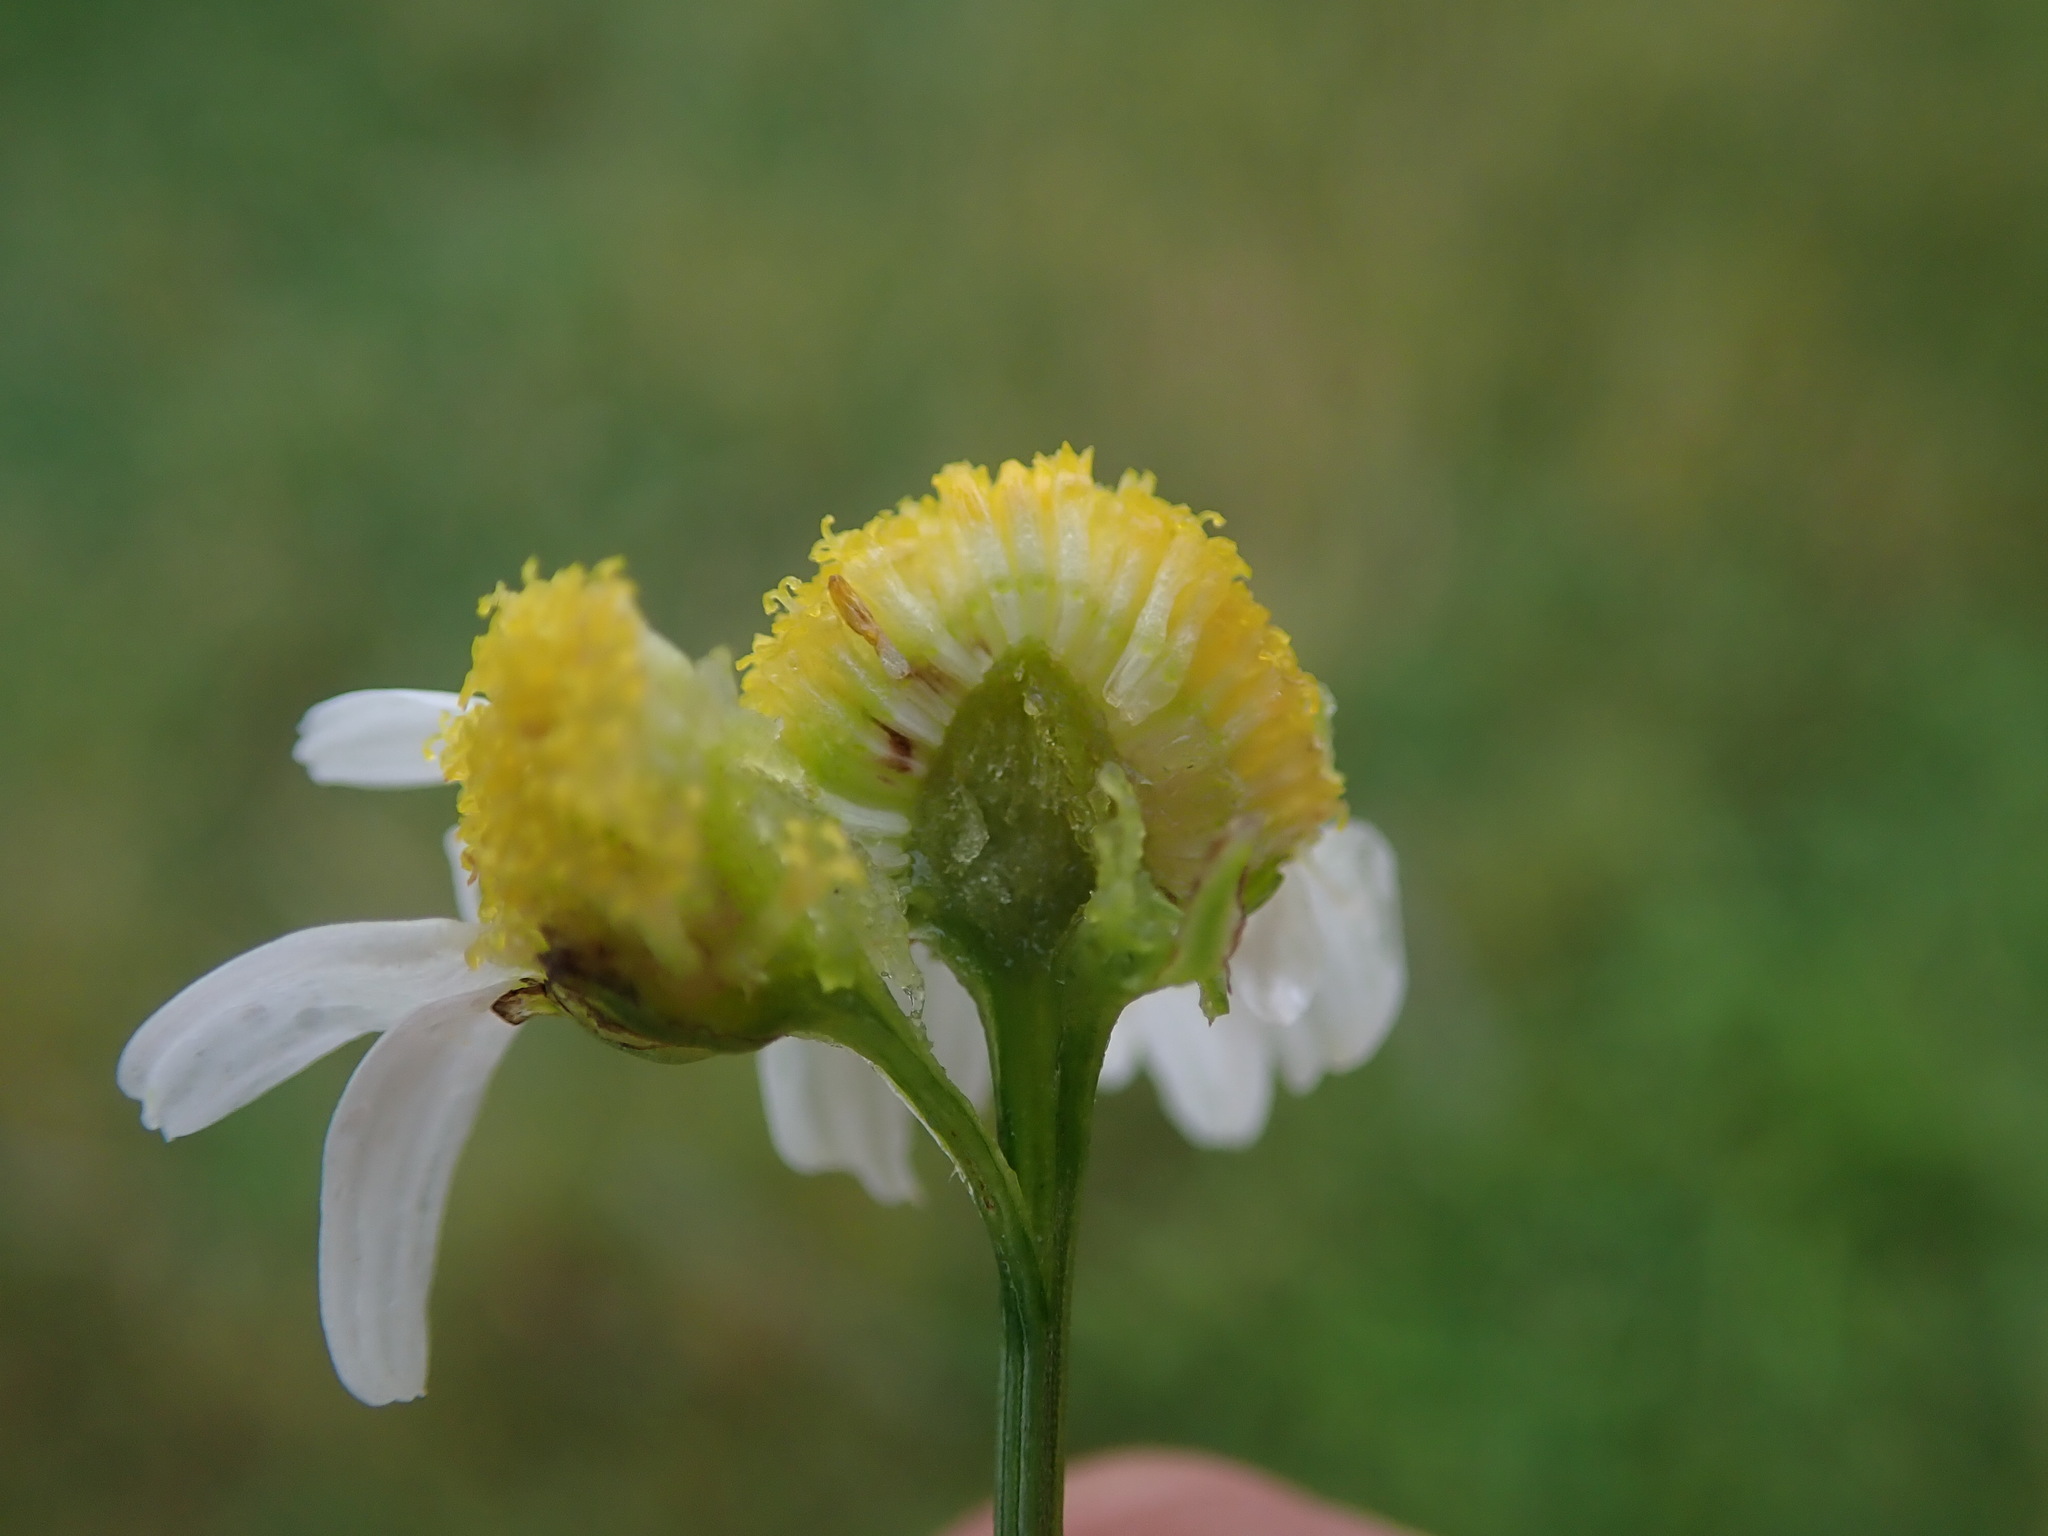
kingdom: Plantae
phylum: Tracheophyta
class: Magnoliopsida
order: Asterales
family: Asteraceae
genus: Tripleurospermum
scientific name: Tripleurospermum inodorum
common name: Scentless mayweed
